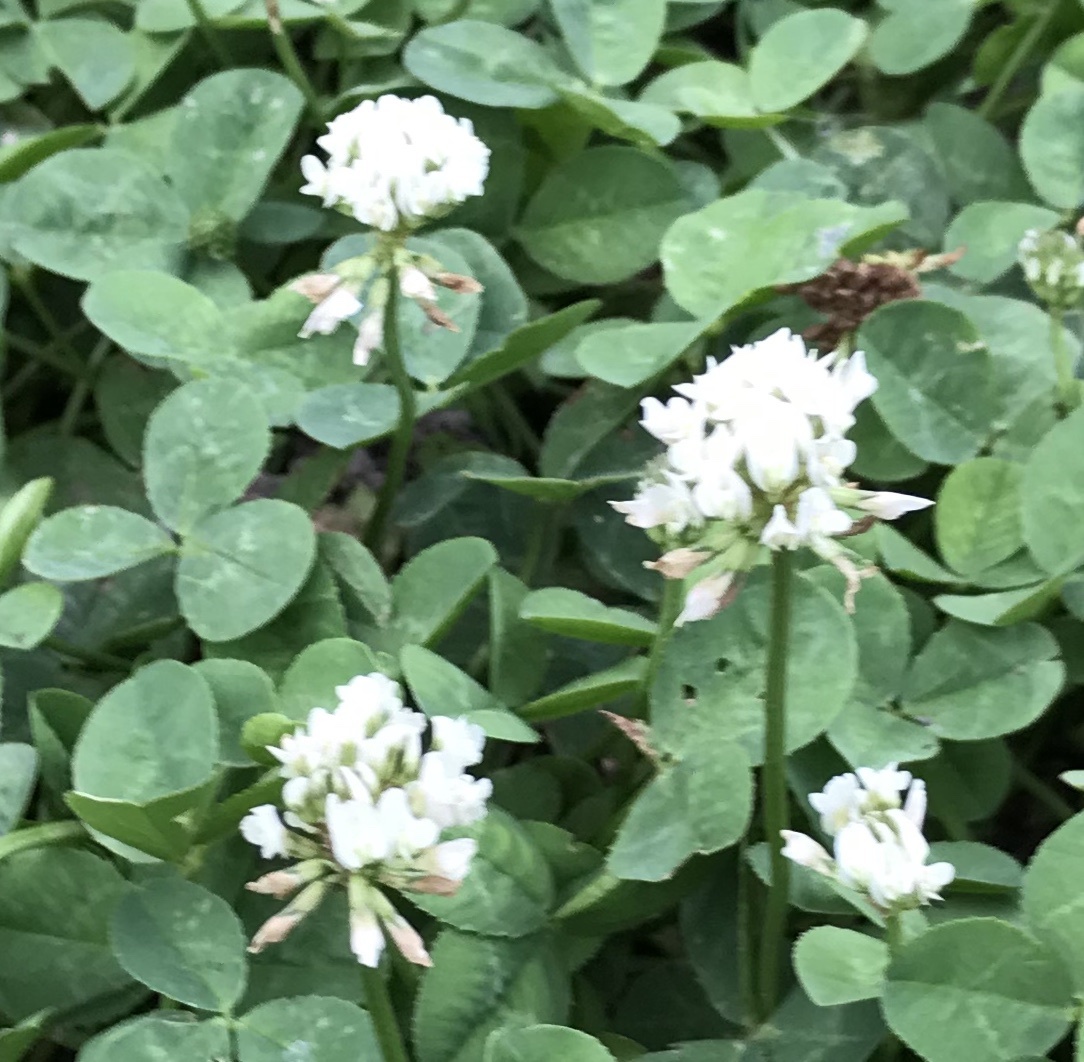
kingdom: Plantae
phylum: Tracheophyta
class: Magnoliopsida
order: Fabales
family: Fabaceae
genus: Trifolium
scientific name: Trifolium repens
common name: White clover
